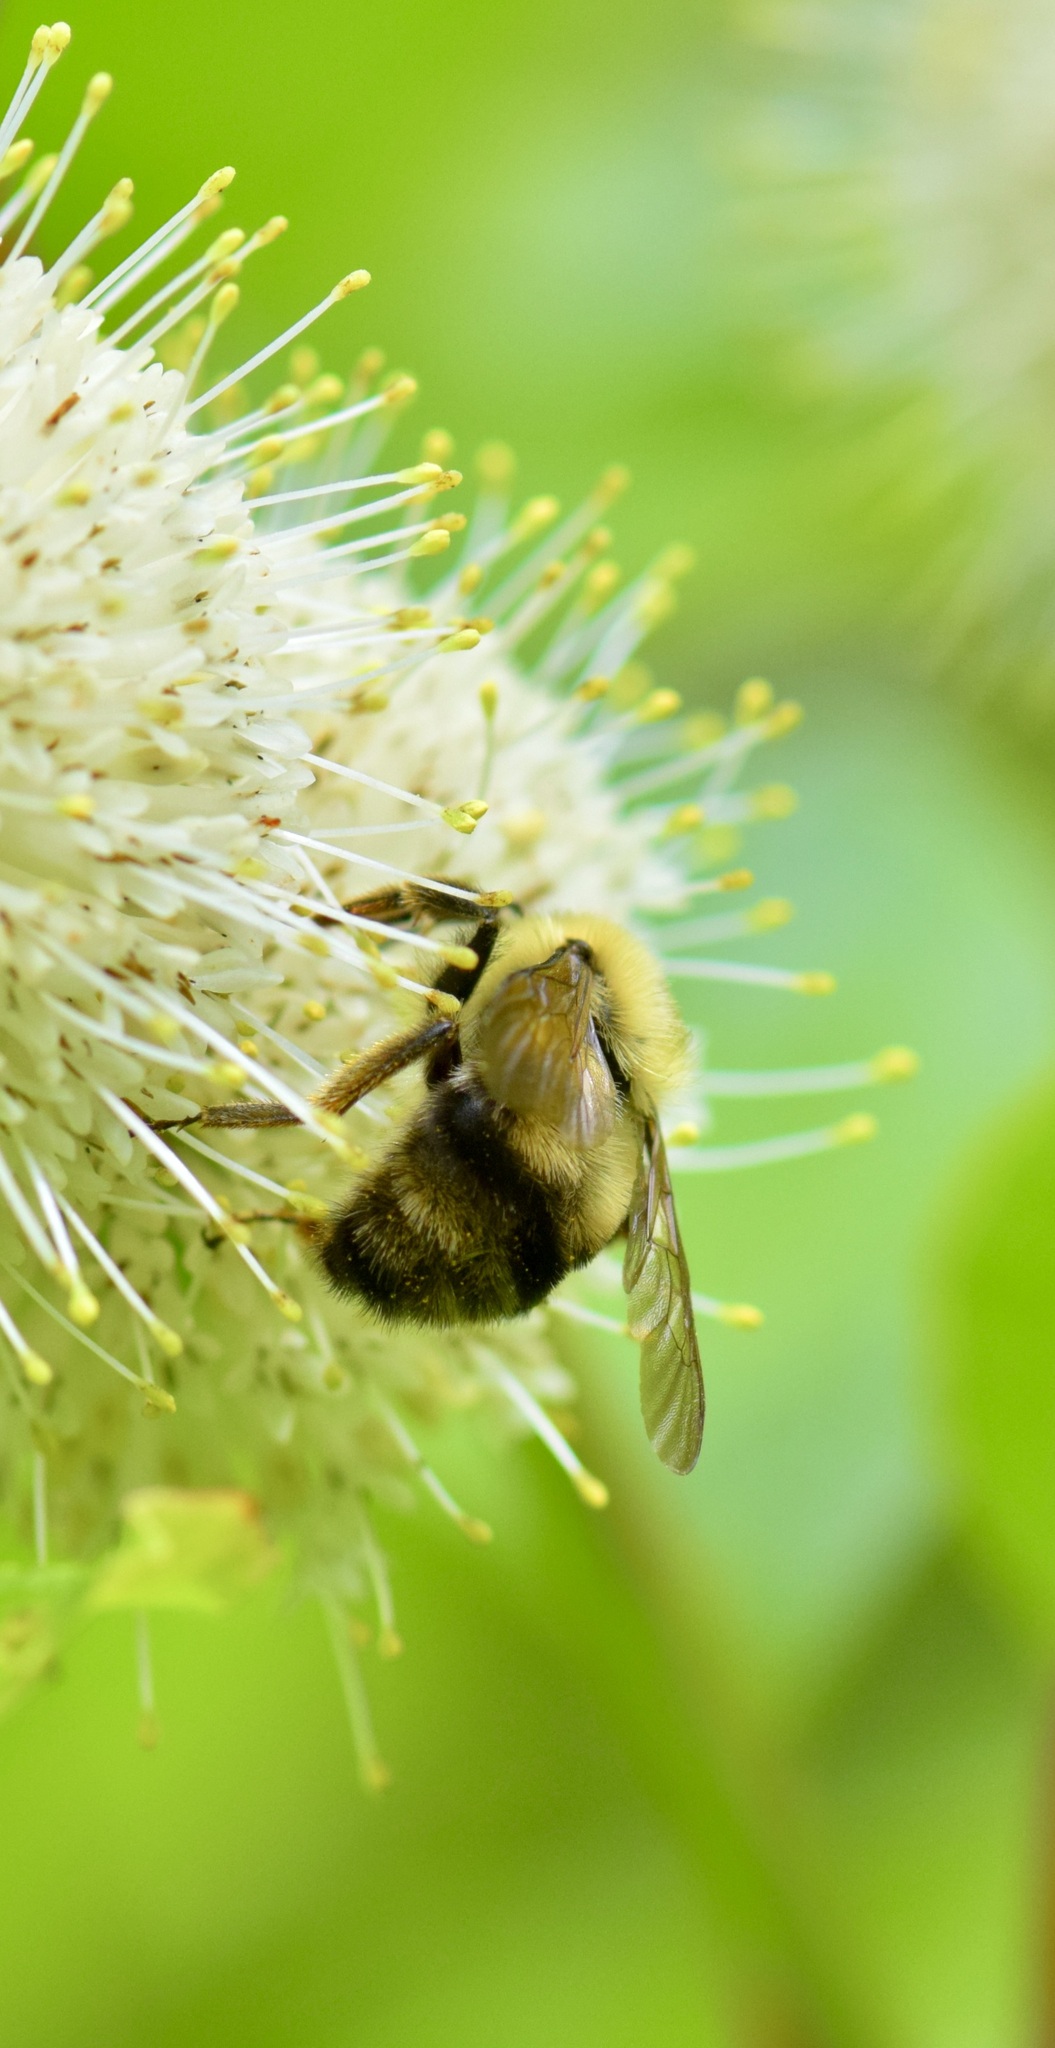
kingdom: Animalia
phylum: Arthropoda
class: Insecta
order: Hymenoptera
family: Apidae
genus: Bombus
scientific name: Bombus bimaculatus
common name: Two-spotted bumble bee
